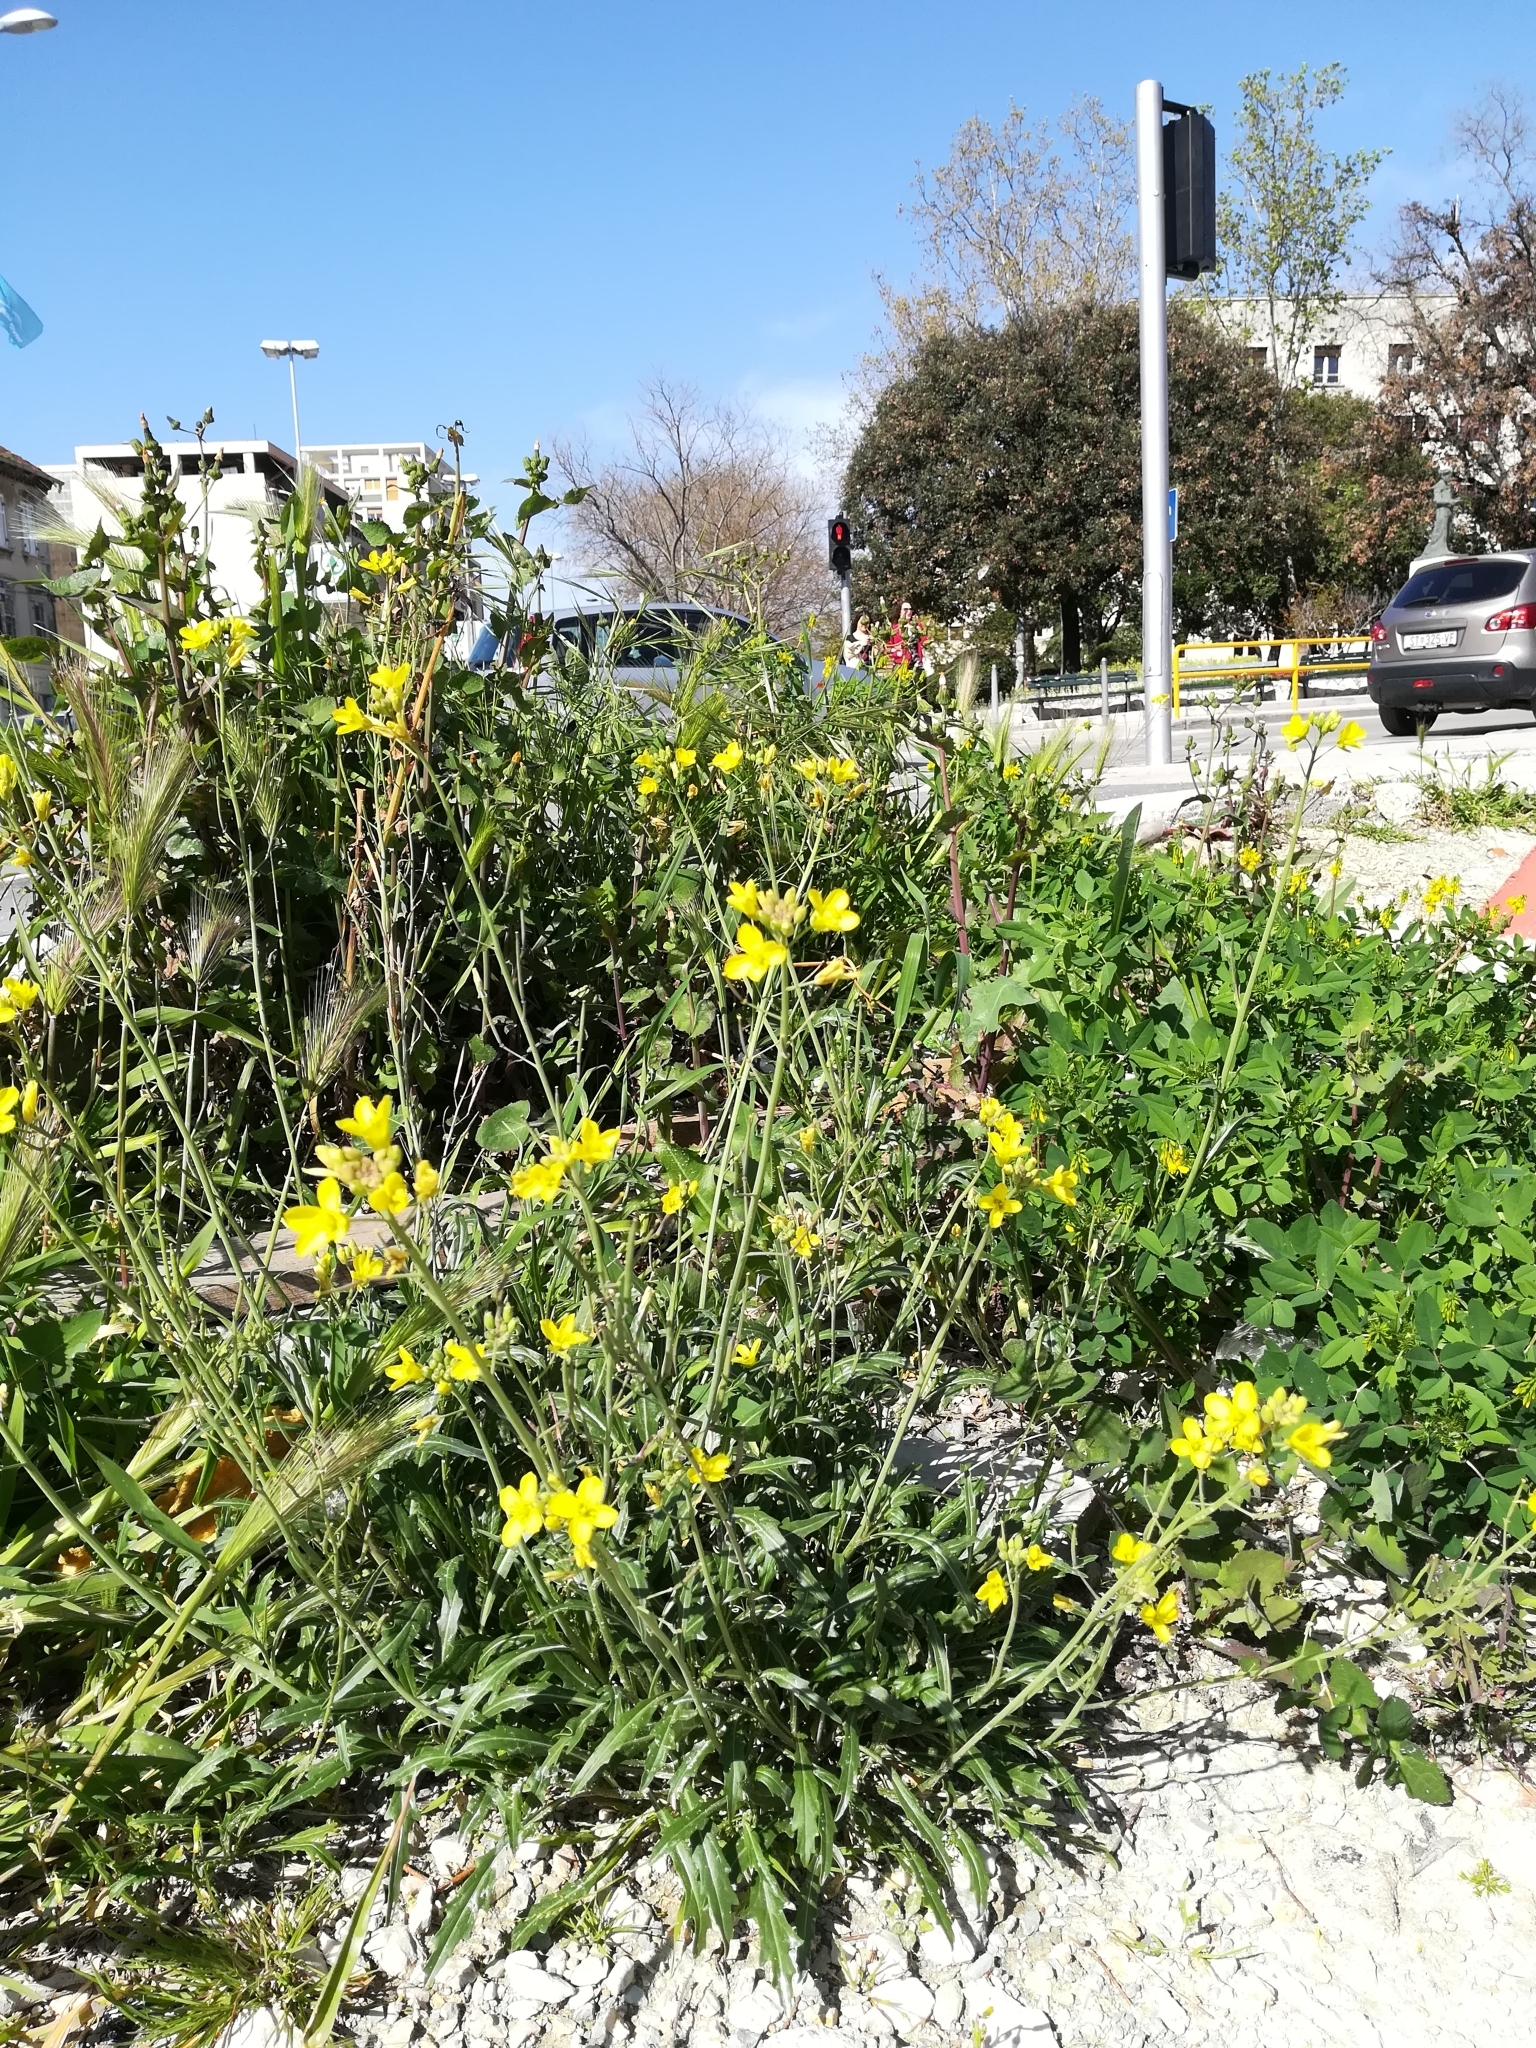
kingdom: Plantae
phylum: Tracheophyta
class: Magnoliopsida
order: Brassicales
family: Brassicaceae
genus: Diplotaxis
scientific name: Diplotaxis tenuifolia
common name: Perennial wall-rocket
